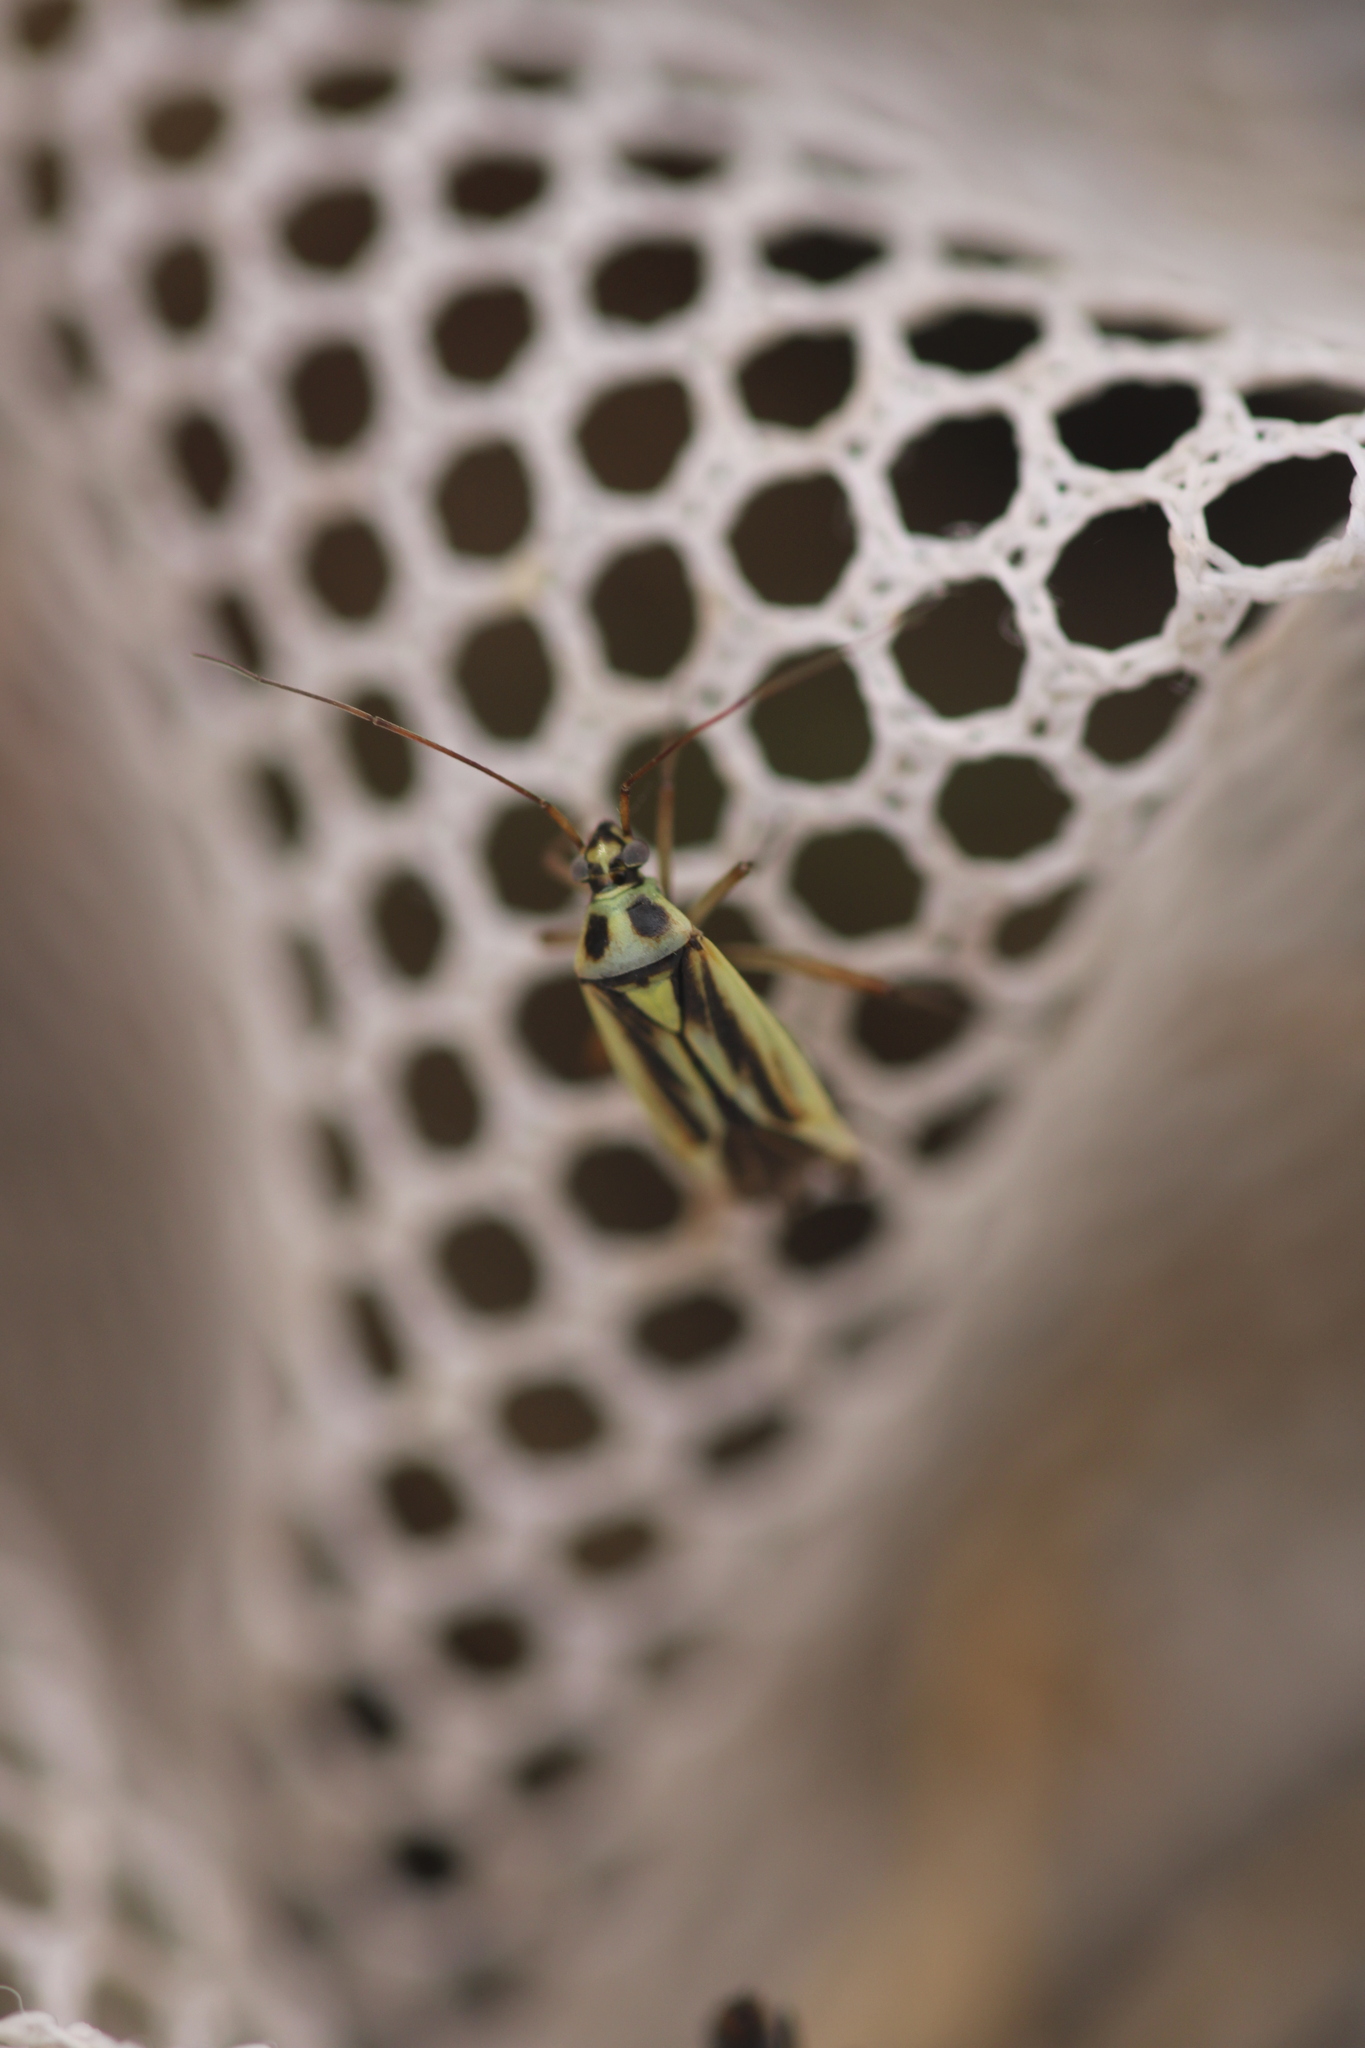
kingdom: Animalia
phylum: Arthropoda
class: Insecta
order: Hemiptera
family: Miridae
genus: Stenotus
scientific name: Stenotus binotatus
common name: Plant bug
